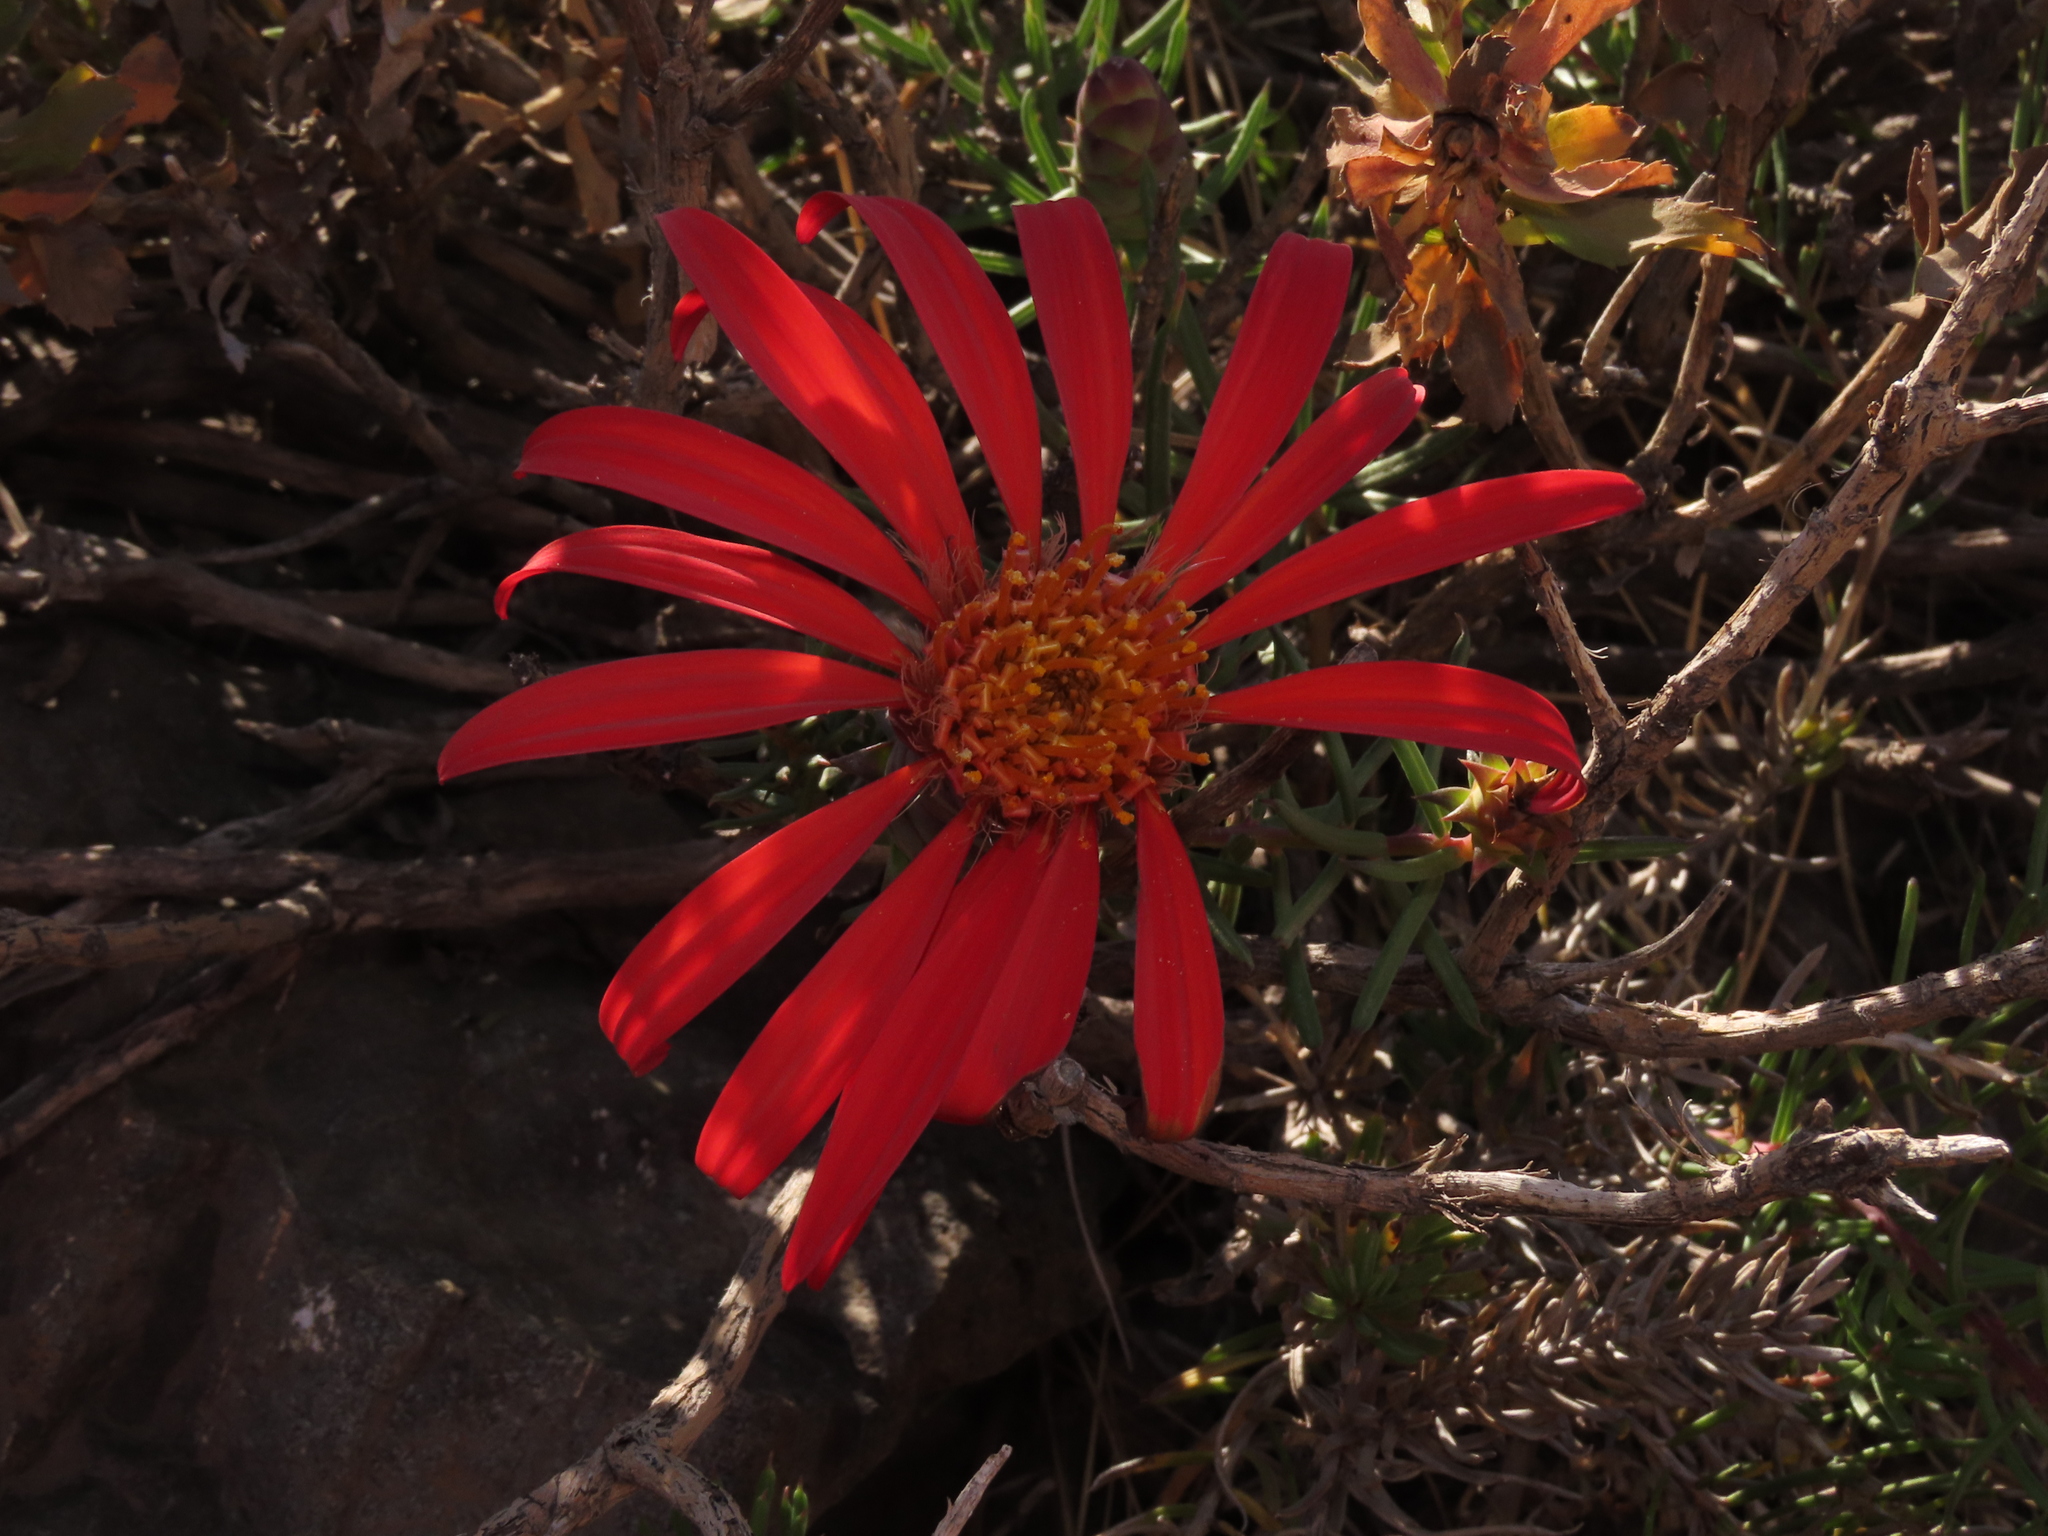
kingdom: Plantae
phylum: Tracheophyta
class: Magnoliopsida
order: Asterales
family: Asteraceae
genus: Mutisia
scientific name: Mutisia subulata
